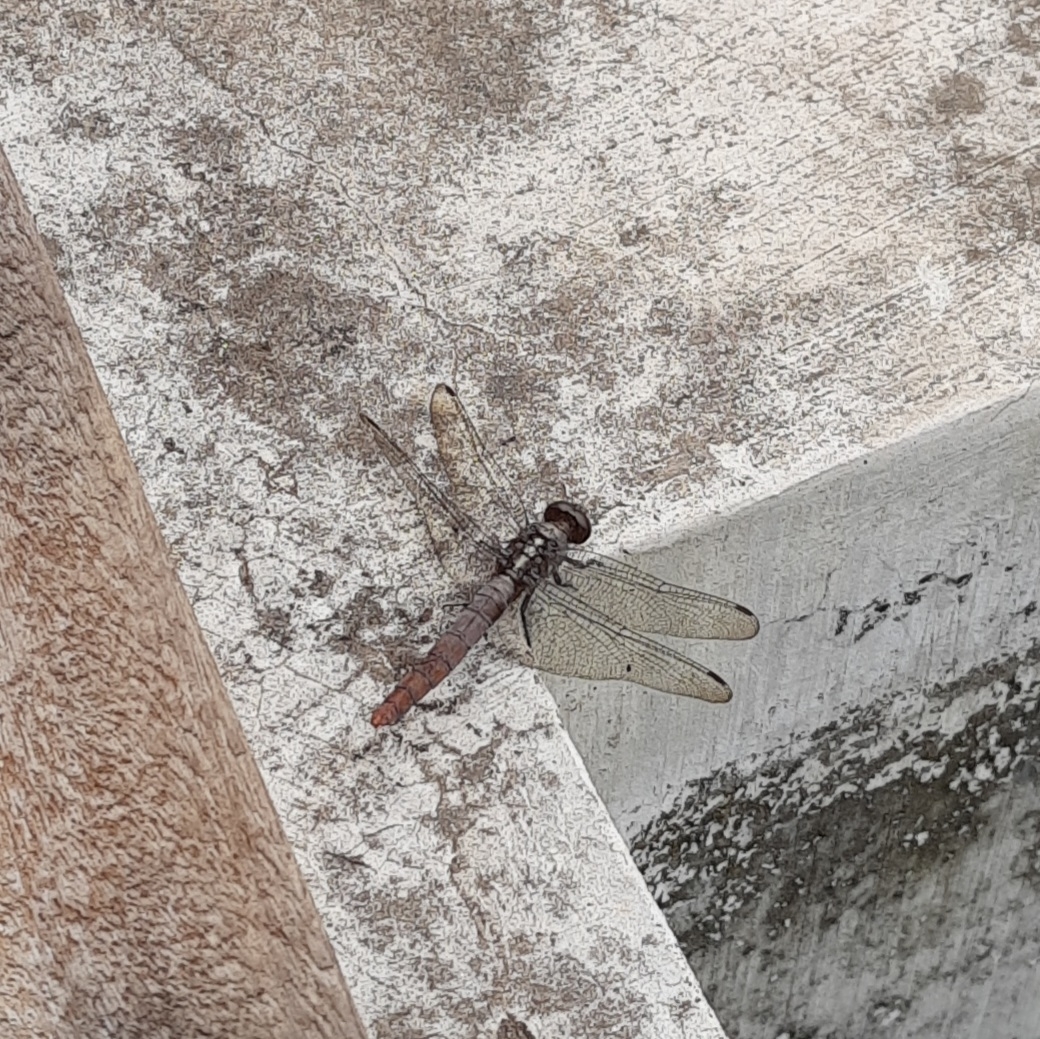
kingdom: Animalia
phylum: Arthropoda
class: Insecta
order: Odonata
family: Libellulidae
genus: Orthetrum
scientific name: Orthetrum chrysis
